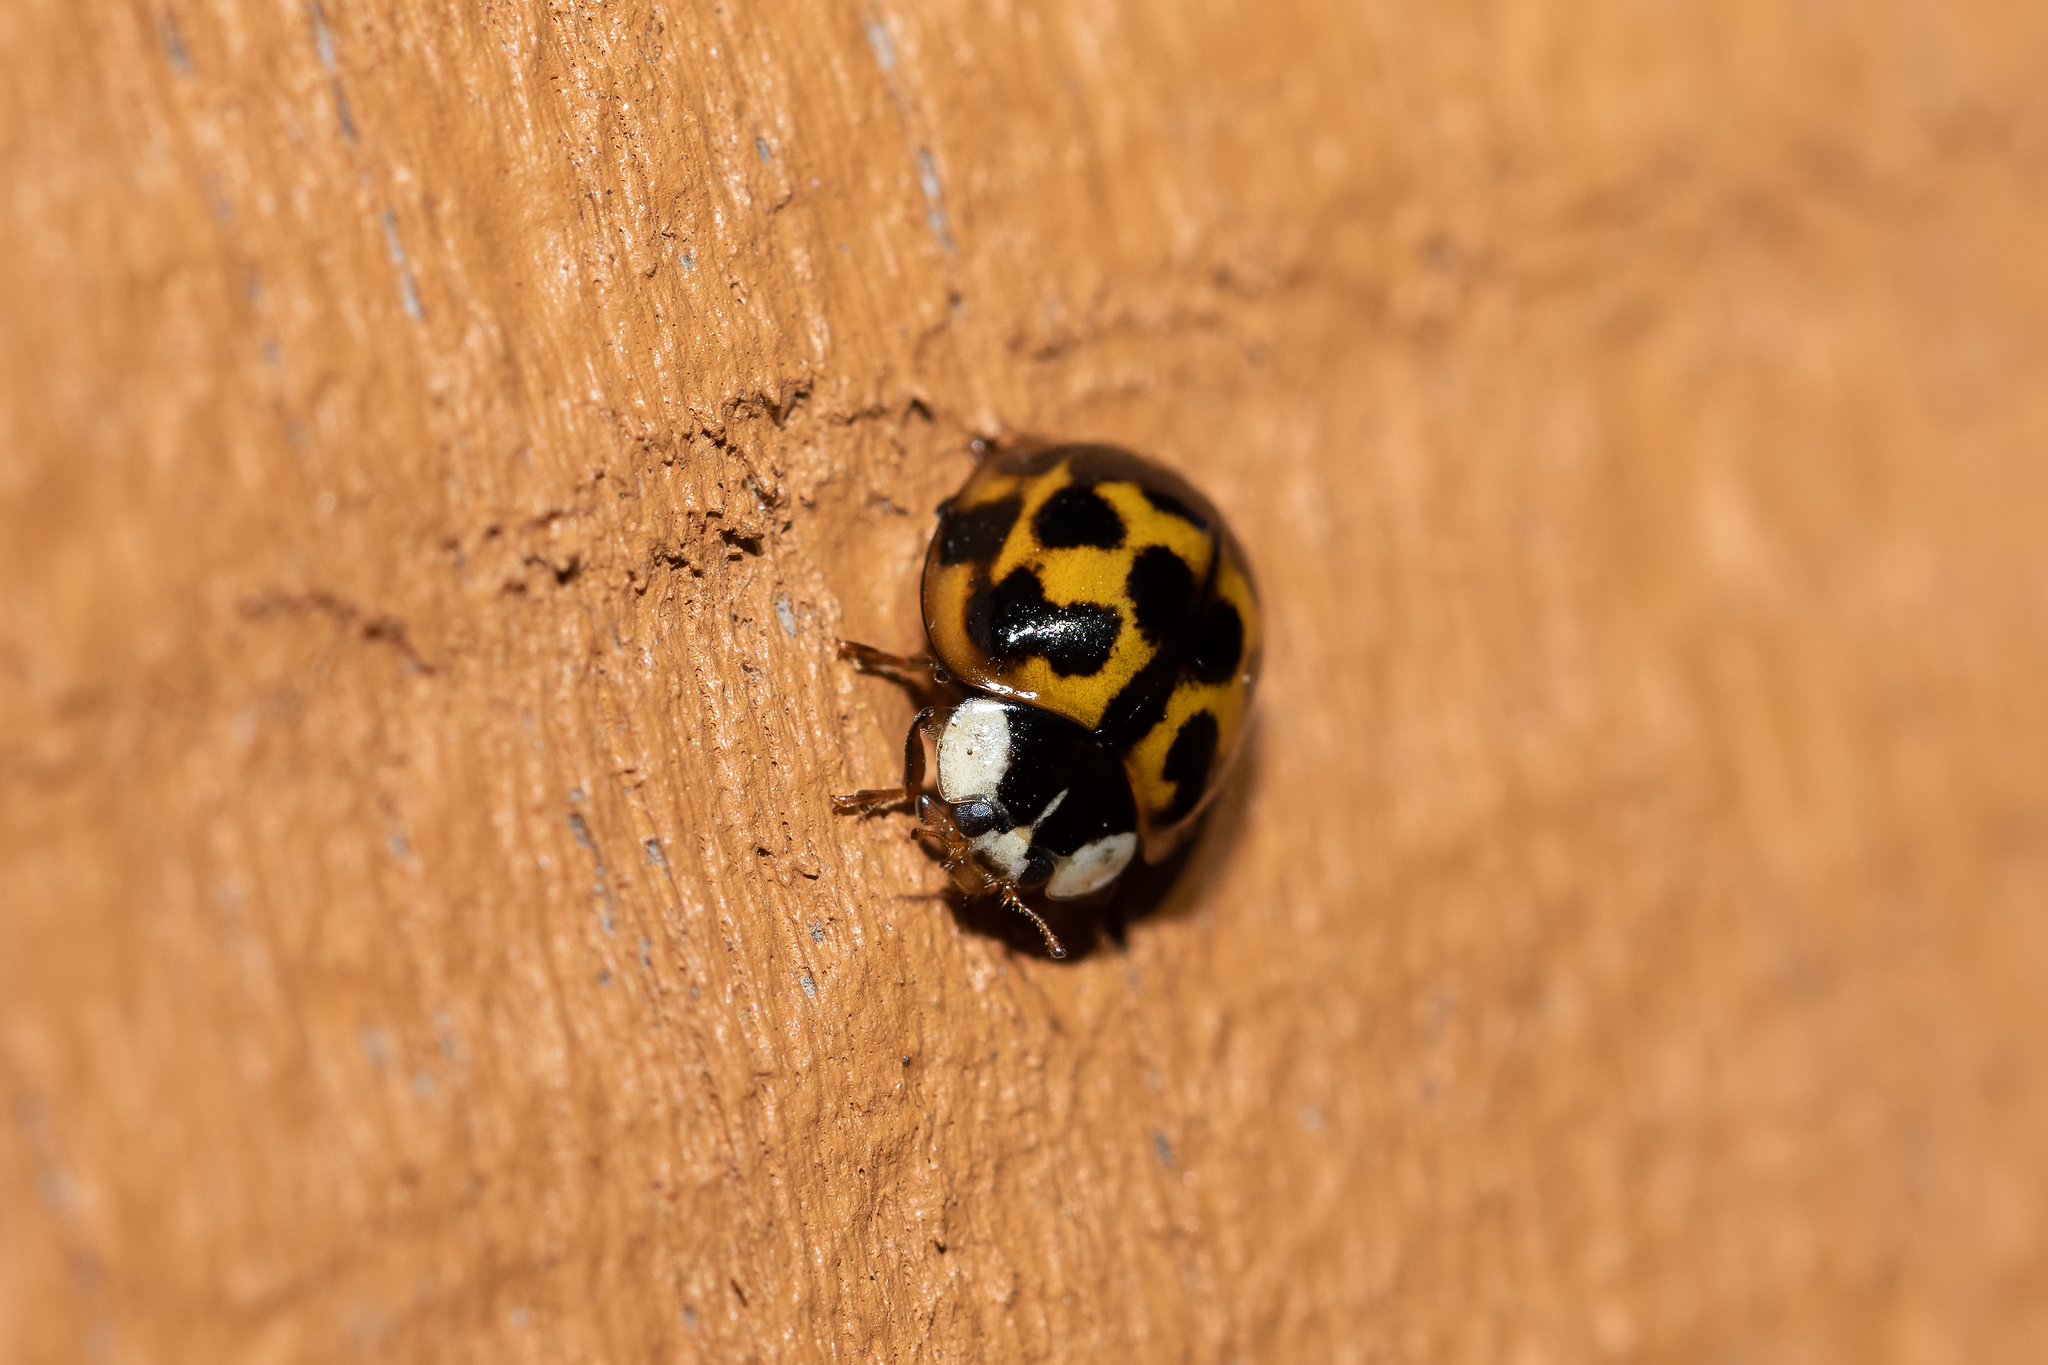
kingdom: Animalia
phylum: Arthropoda
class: Insecta
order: Coleoptera
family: Coccinellidae
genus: Harmonia
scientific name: Harmonia axyridis
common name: Harlequin ladybird
